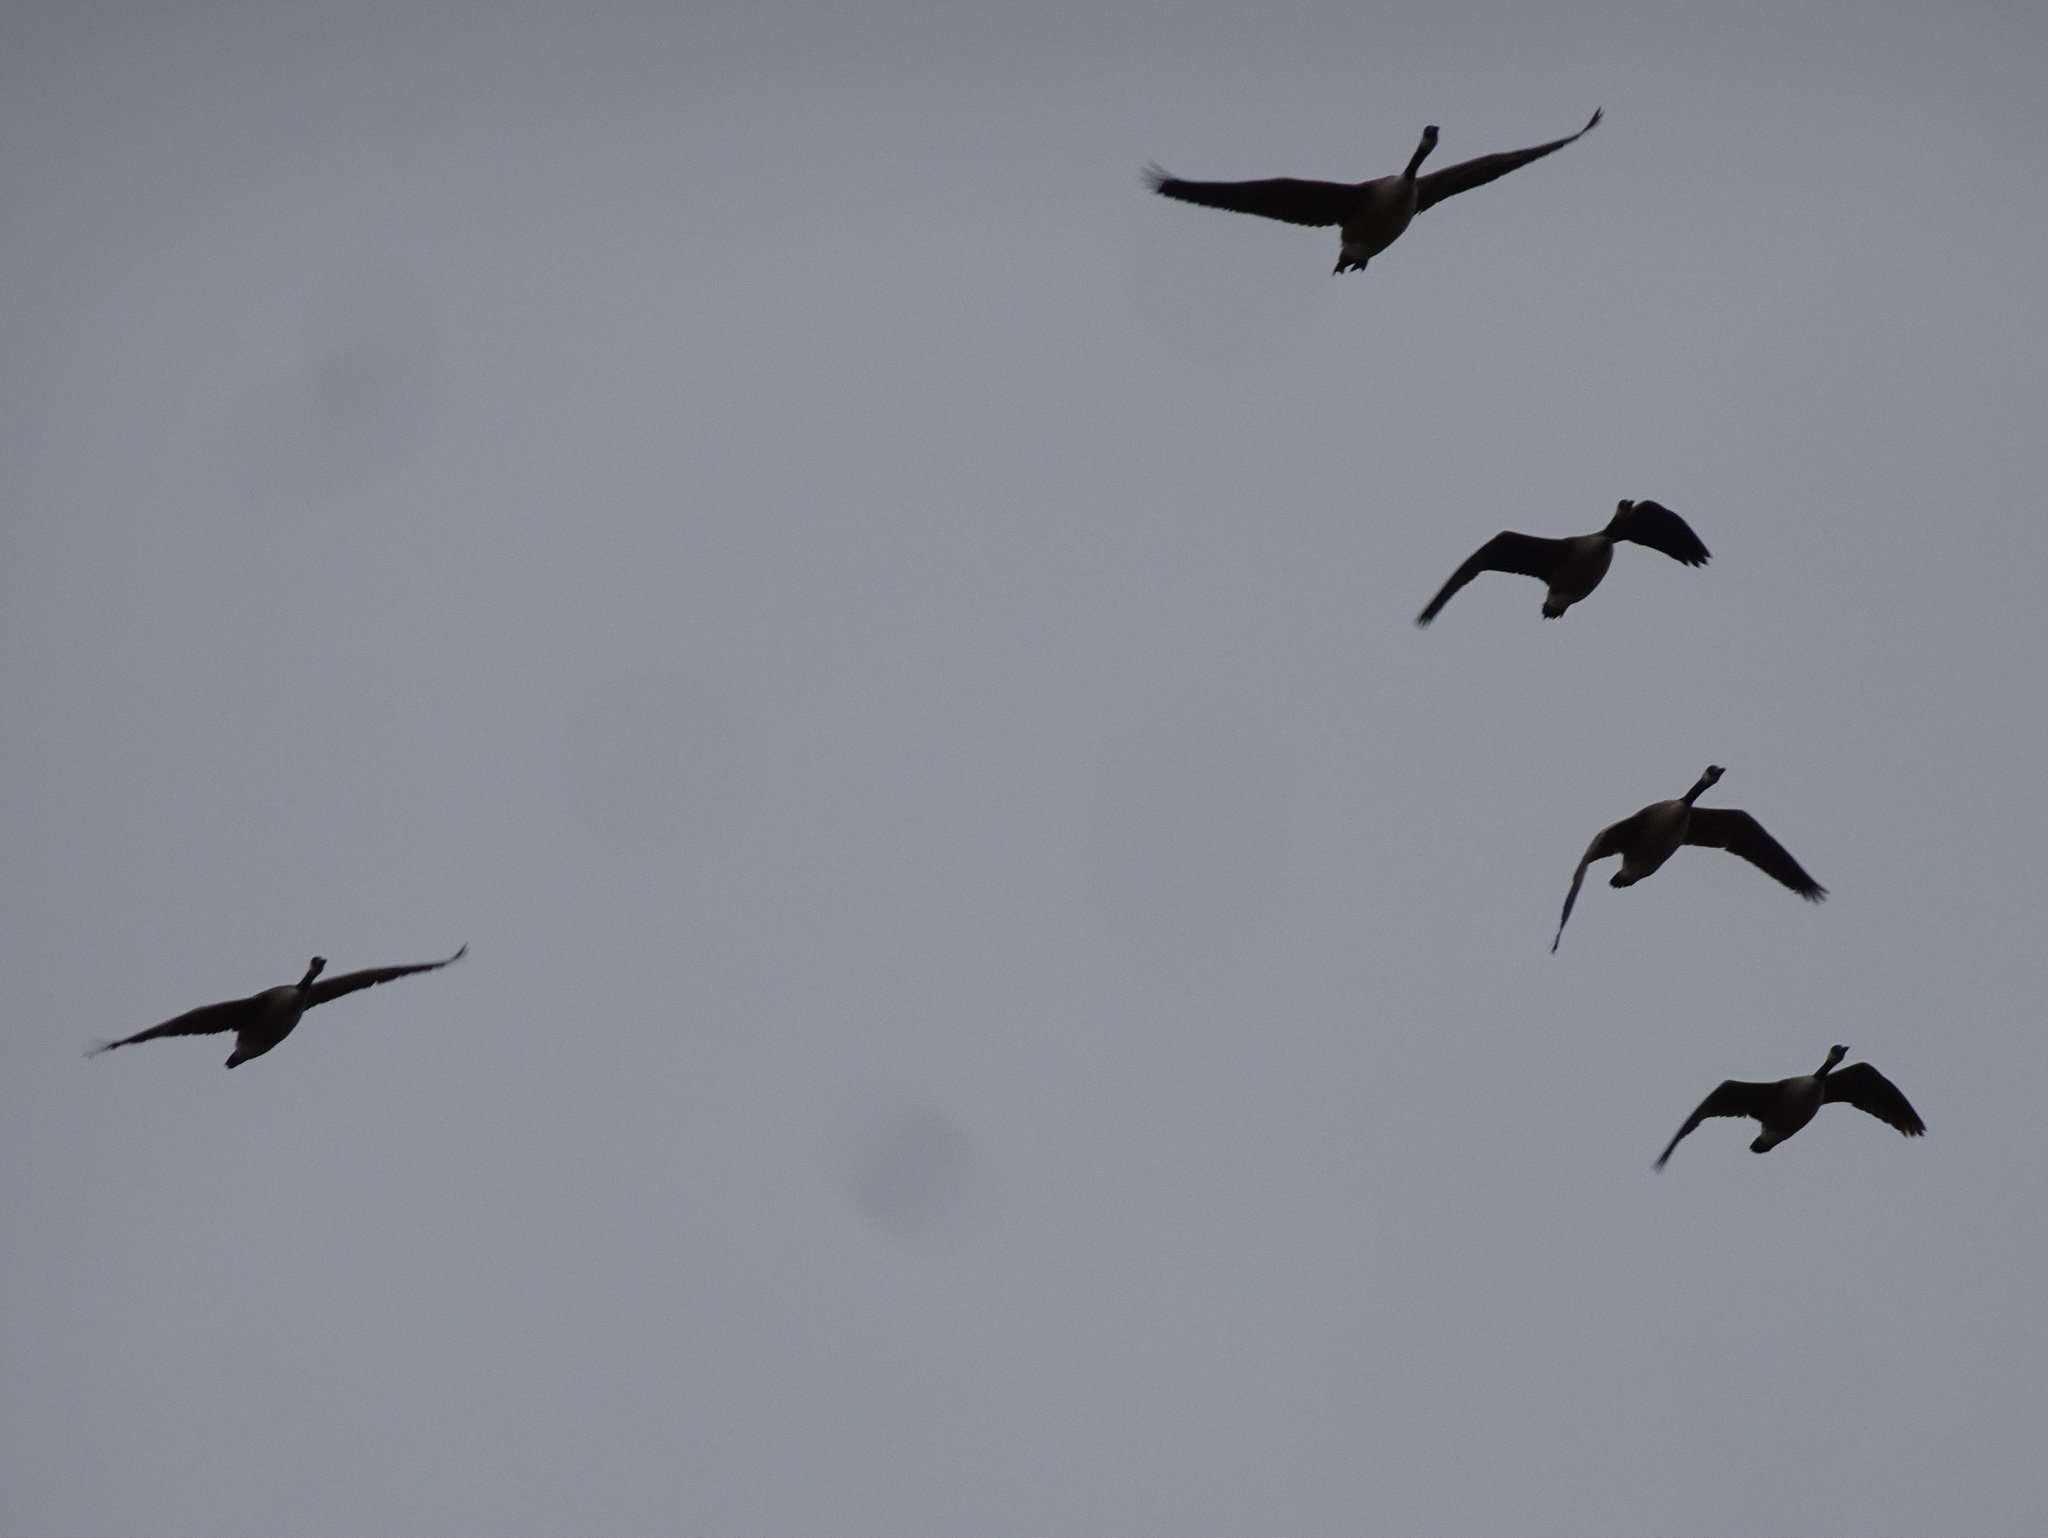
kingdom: Animalia
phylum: Chordata
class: Aves
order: Anseriformes
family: Anatidae
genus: Branta
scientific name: Branta canadensis
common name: Canada goose
